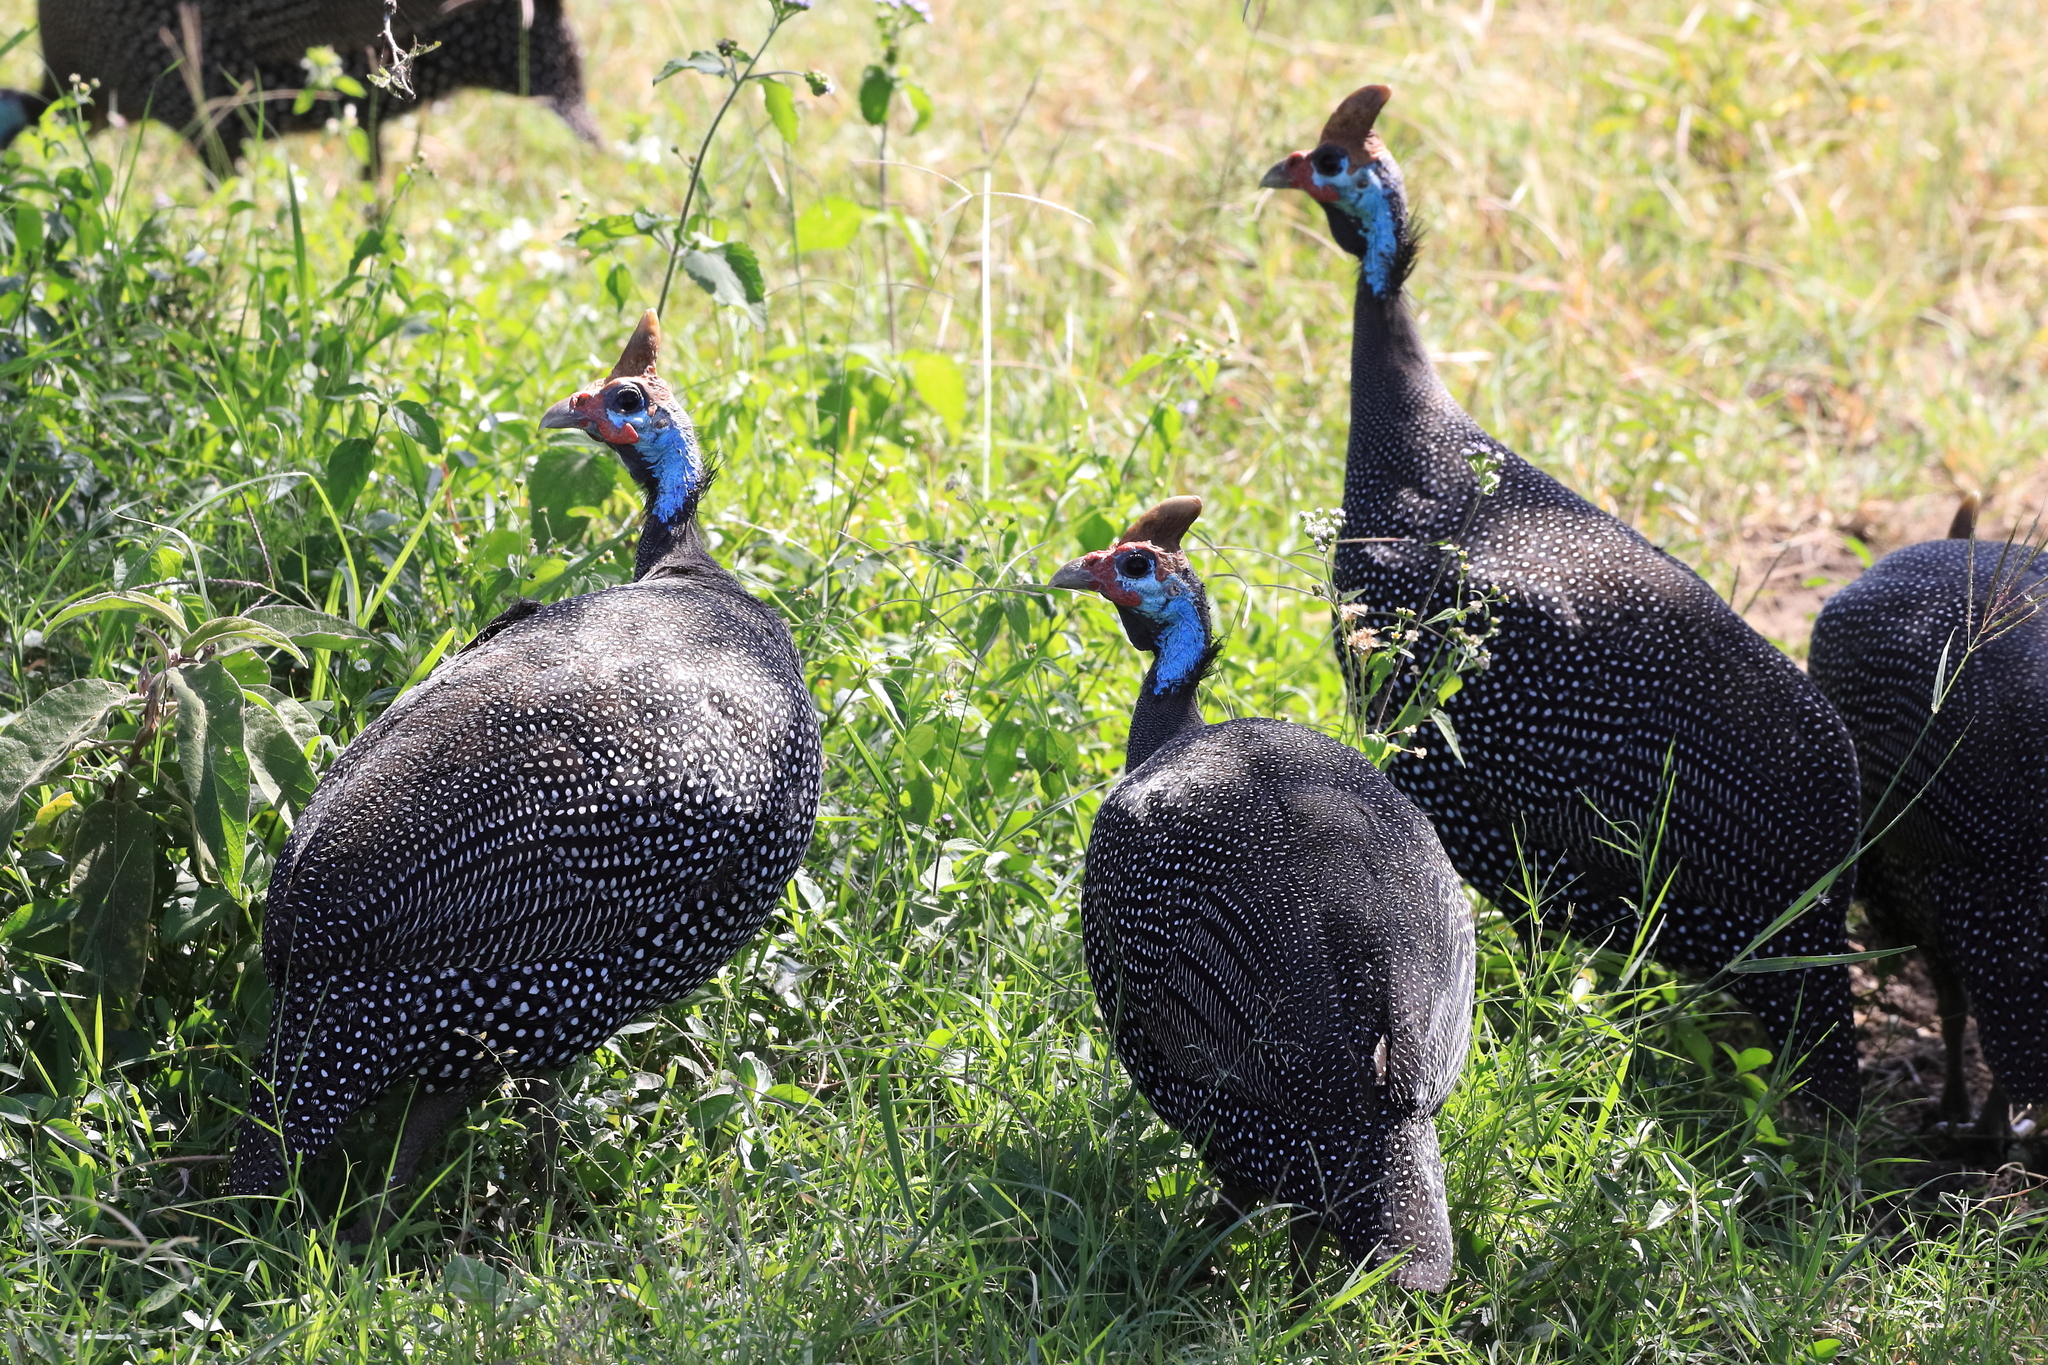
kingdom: Animalia
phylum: Chordata
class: Aves
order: Galliformes
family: Numididae
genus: Numida
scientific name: Numida meleagris
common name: Helmeted guineafowl
